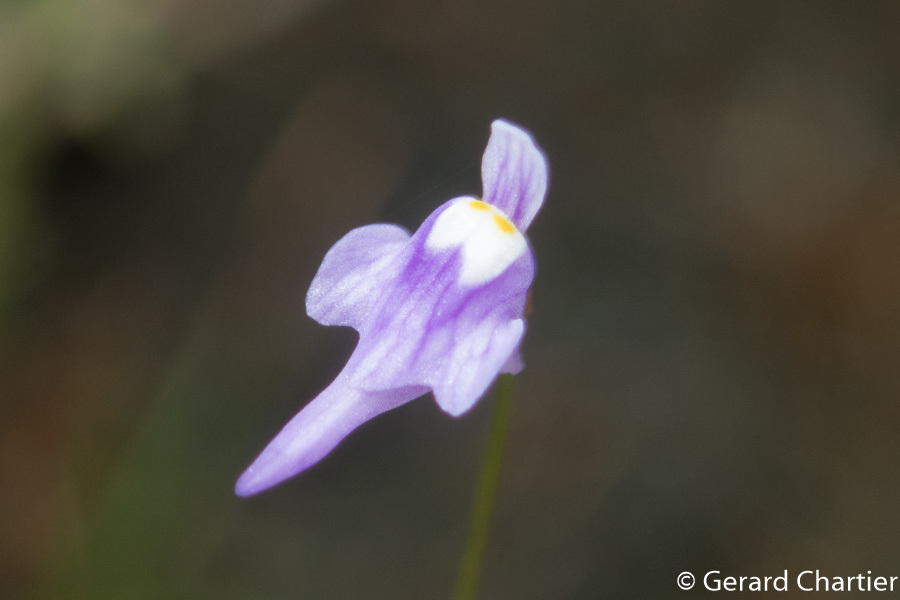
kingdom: Plantae
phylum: Tracheophyta
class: Magnoliopsida
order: Lamiales
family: Lentibulariaceae
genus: Utricularia
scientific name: Utricularia geoffrayi
